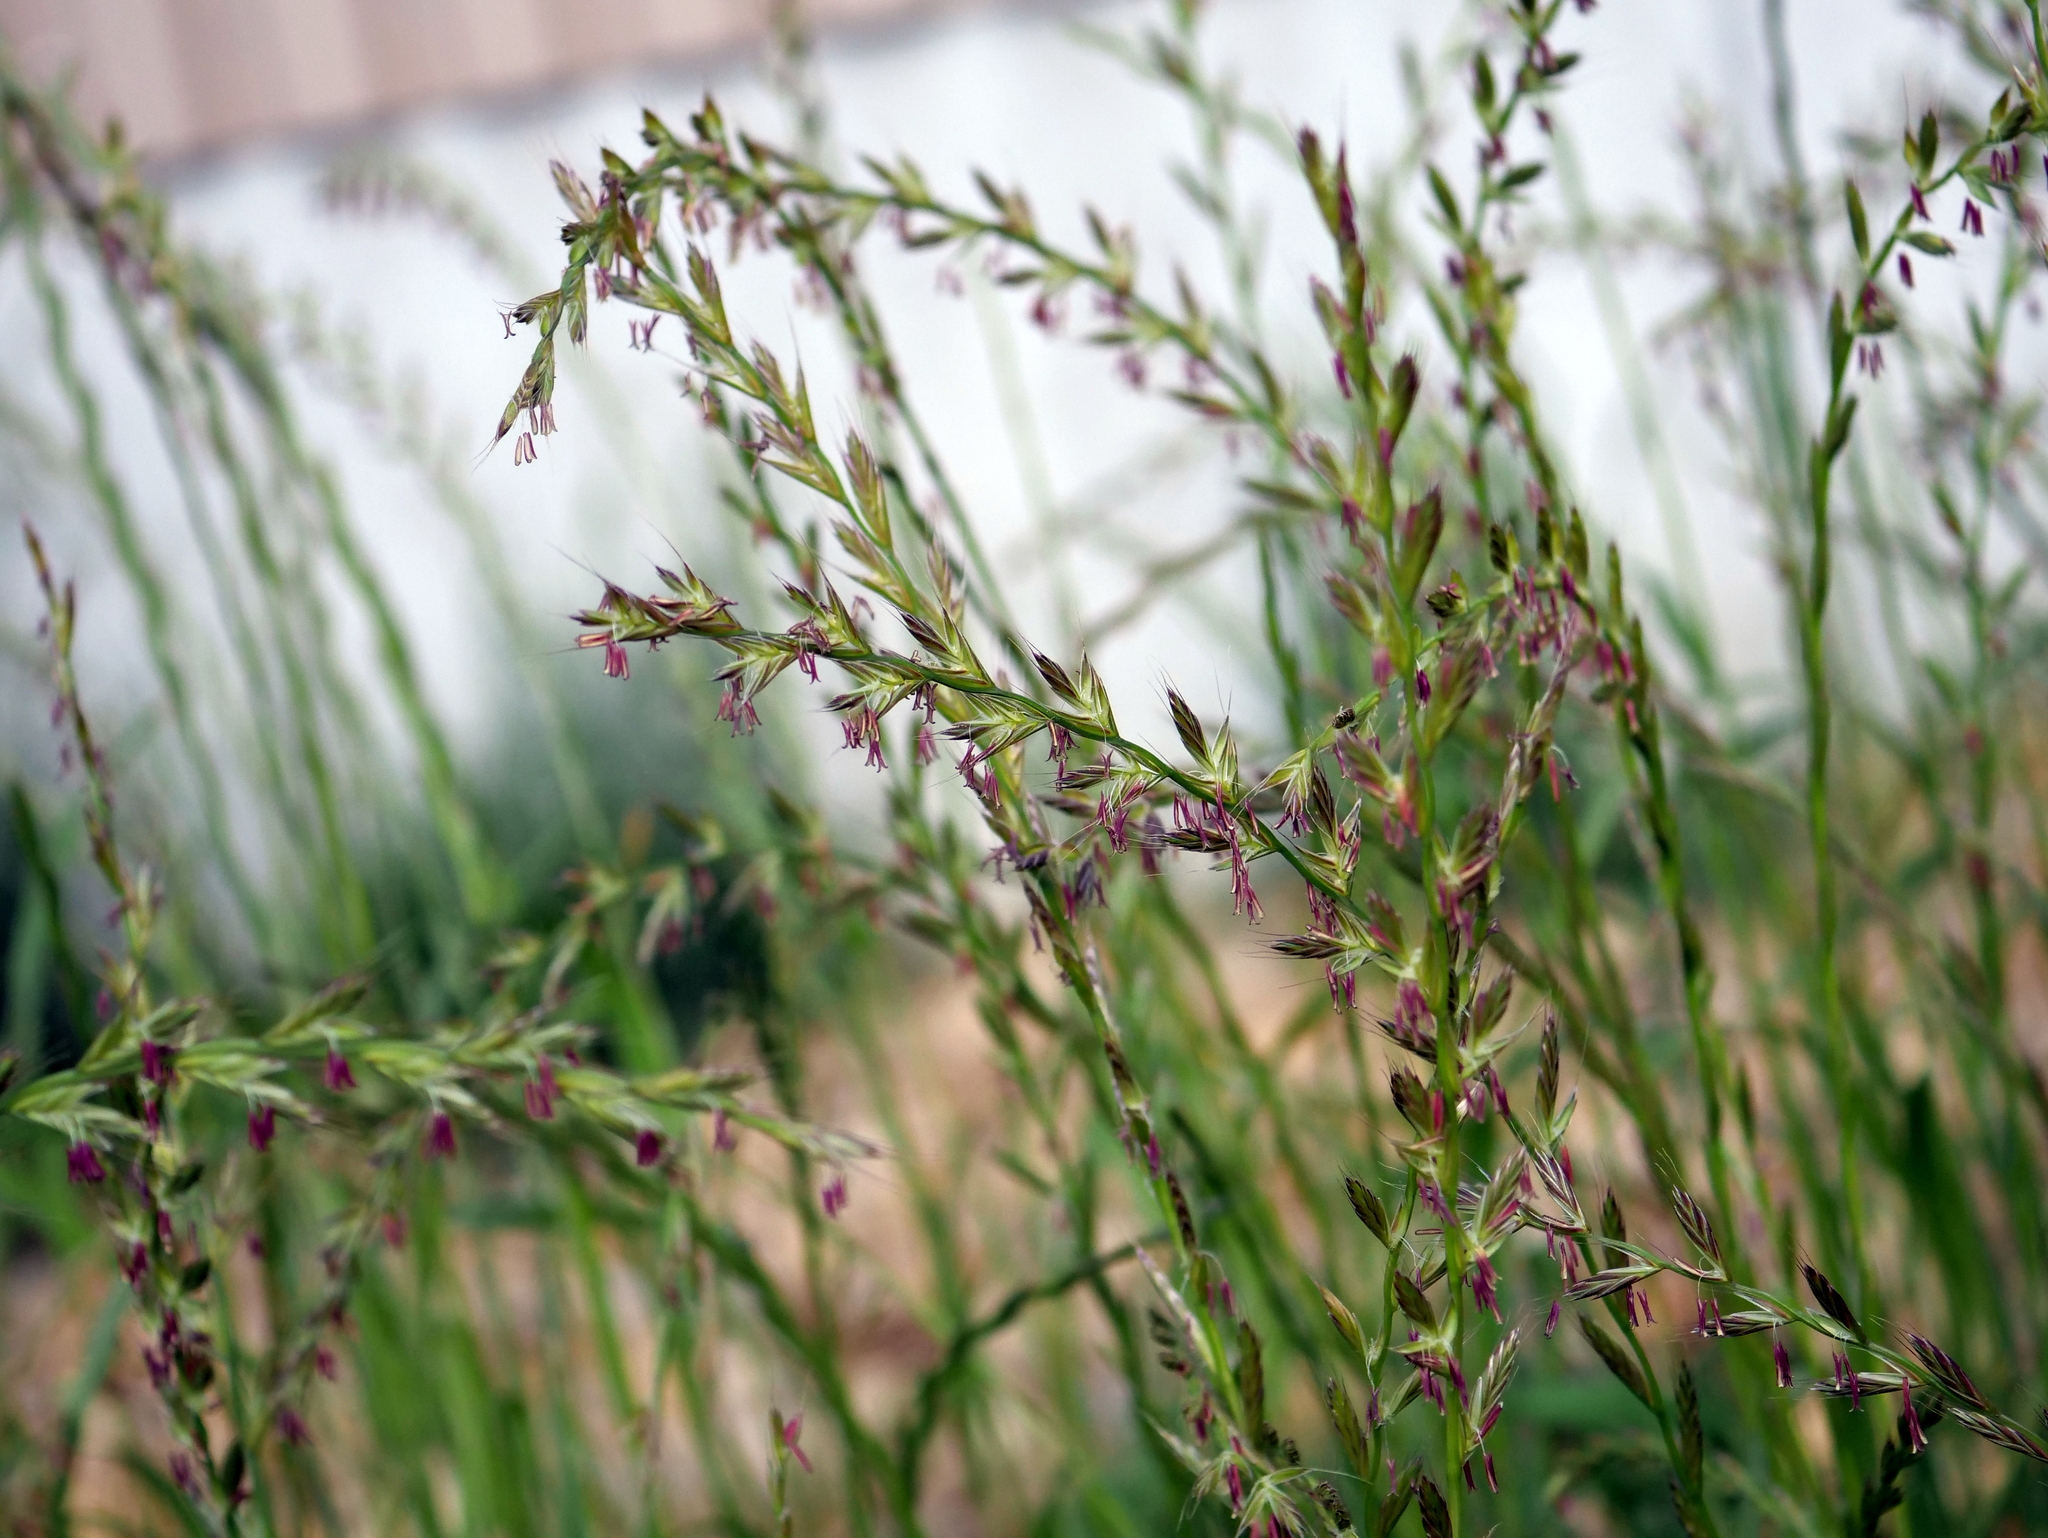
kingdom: Plantae
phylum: Tracheophyta
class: Liliopsida
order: Poales
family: Poaceae
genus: Lolium
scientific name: Lolium multiflorum
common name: Annual ryegrass
